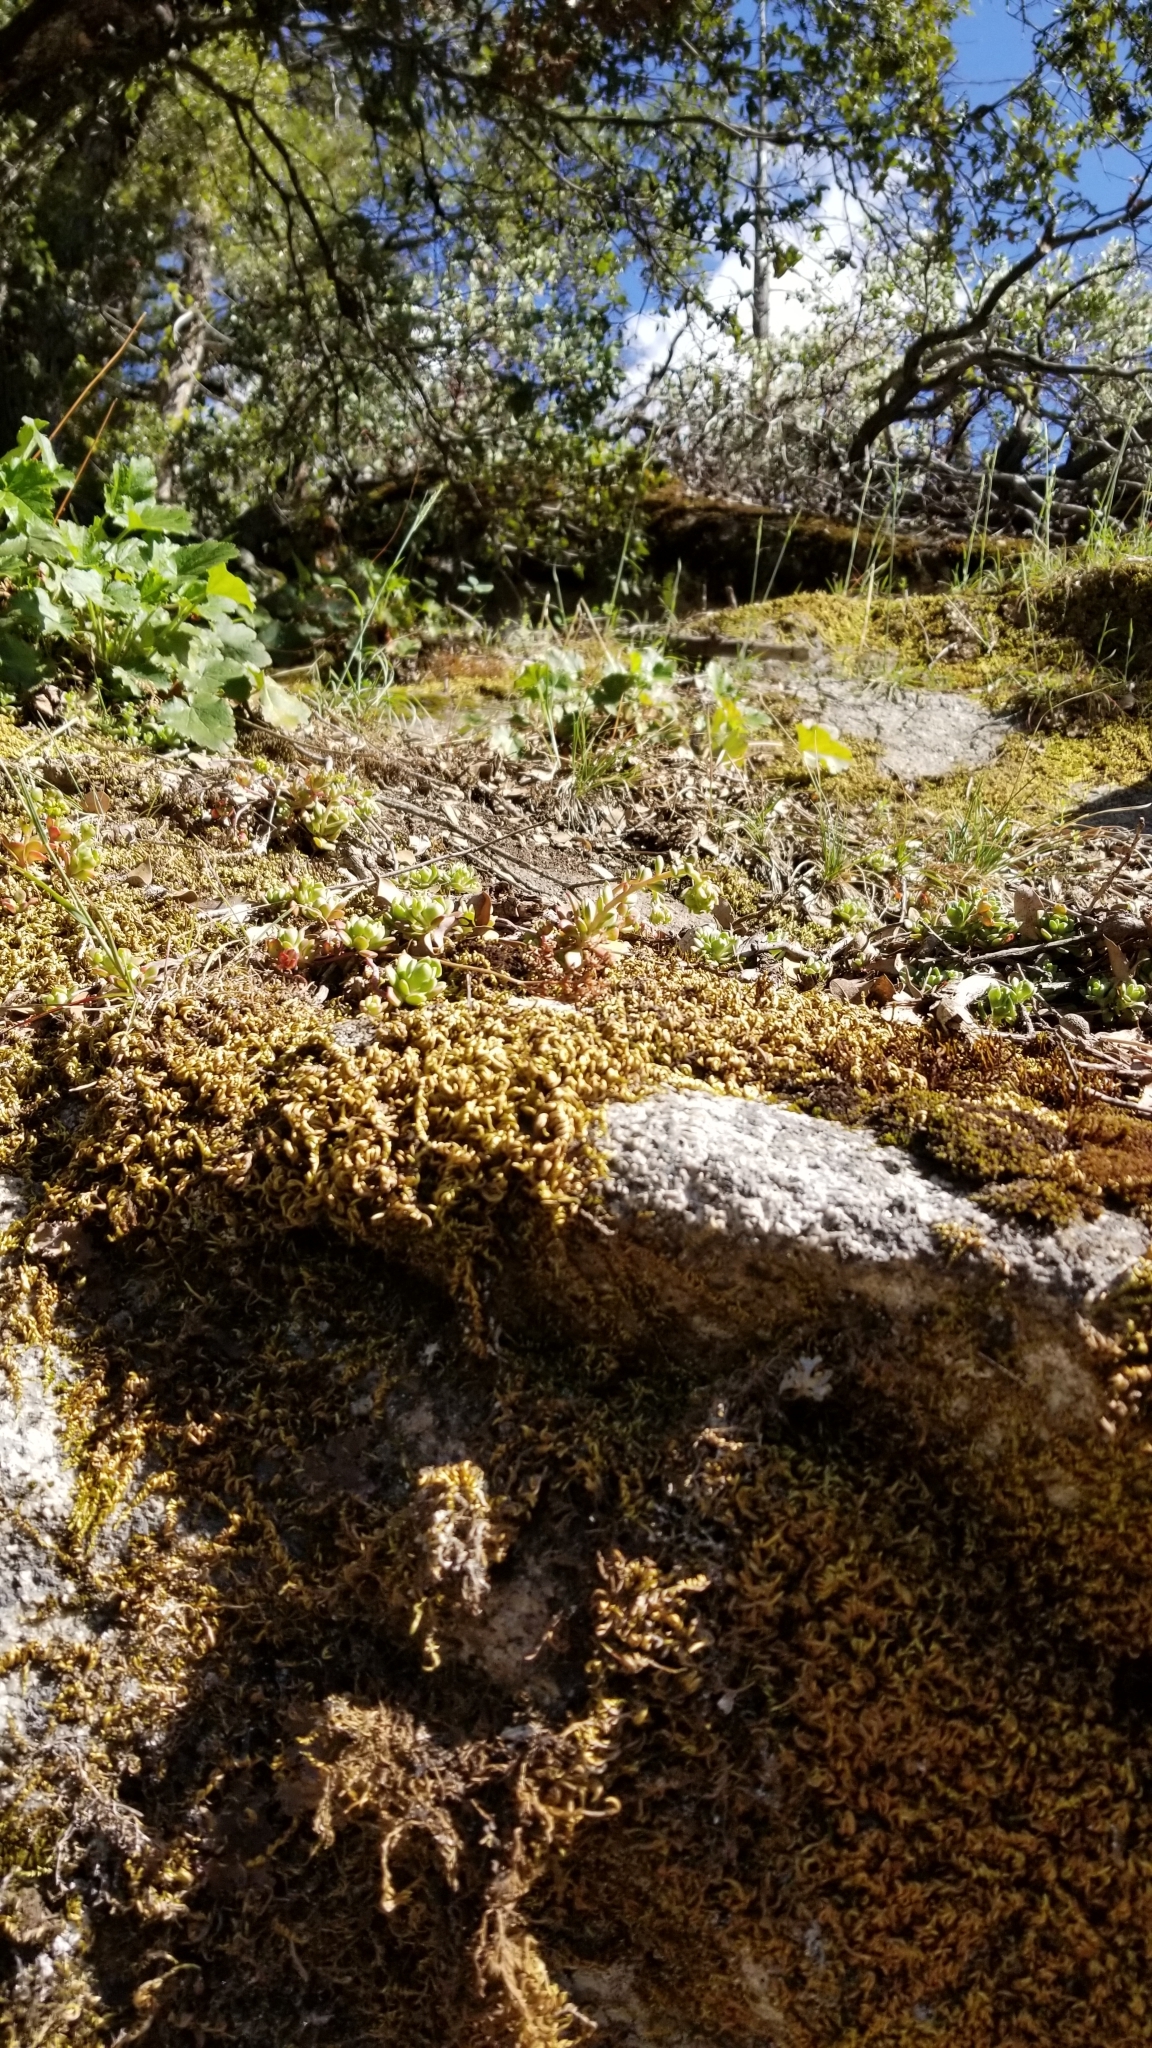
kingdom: Plantae
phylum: Tracheophyta
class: Magnoliopsida
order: Saxifragales
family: Crassulaceae
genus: Sedum
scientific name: Sedum spathulifolium
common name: Colorado stonecrop
